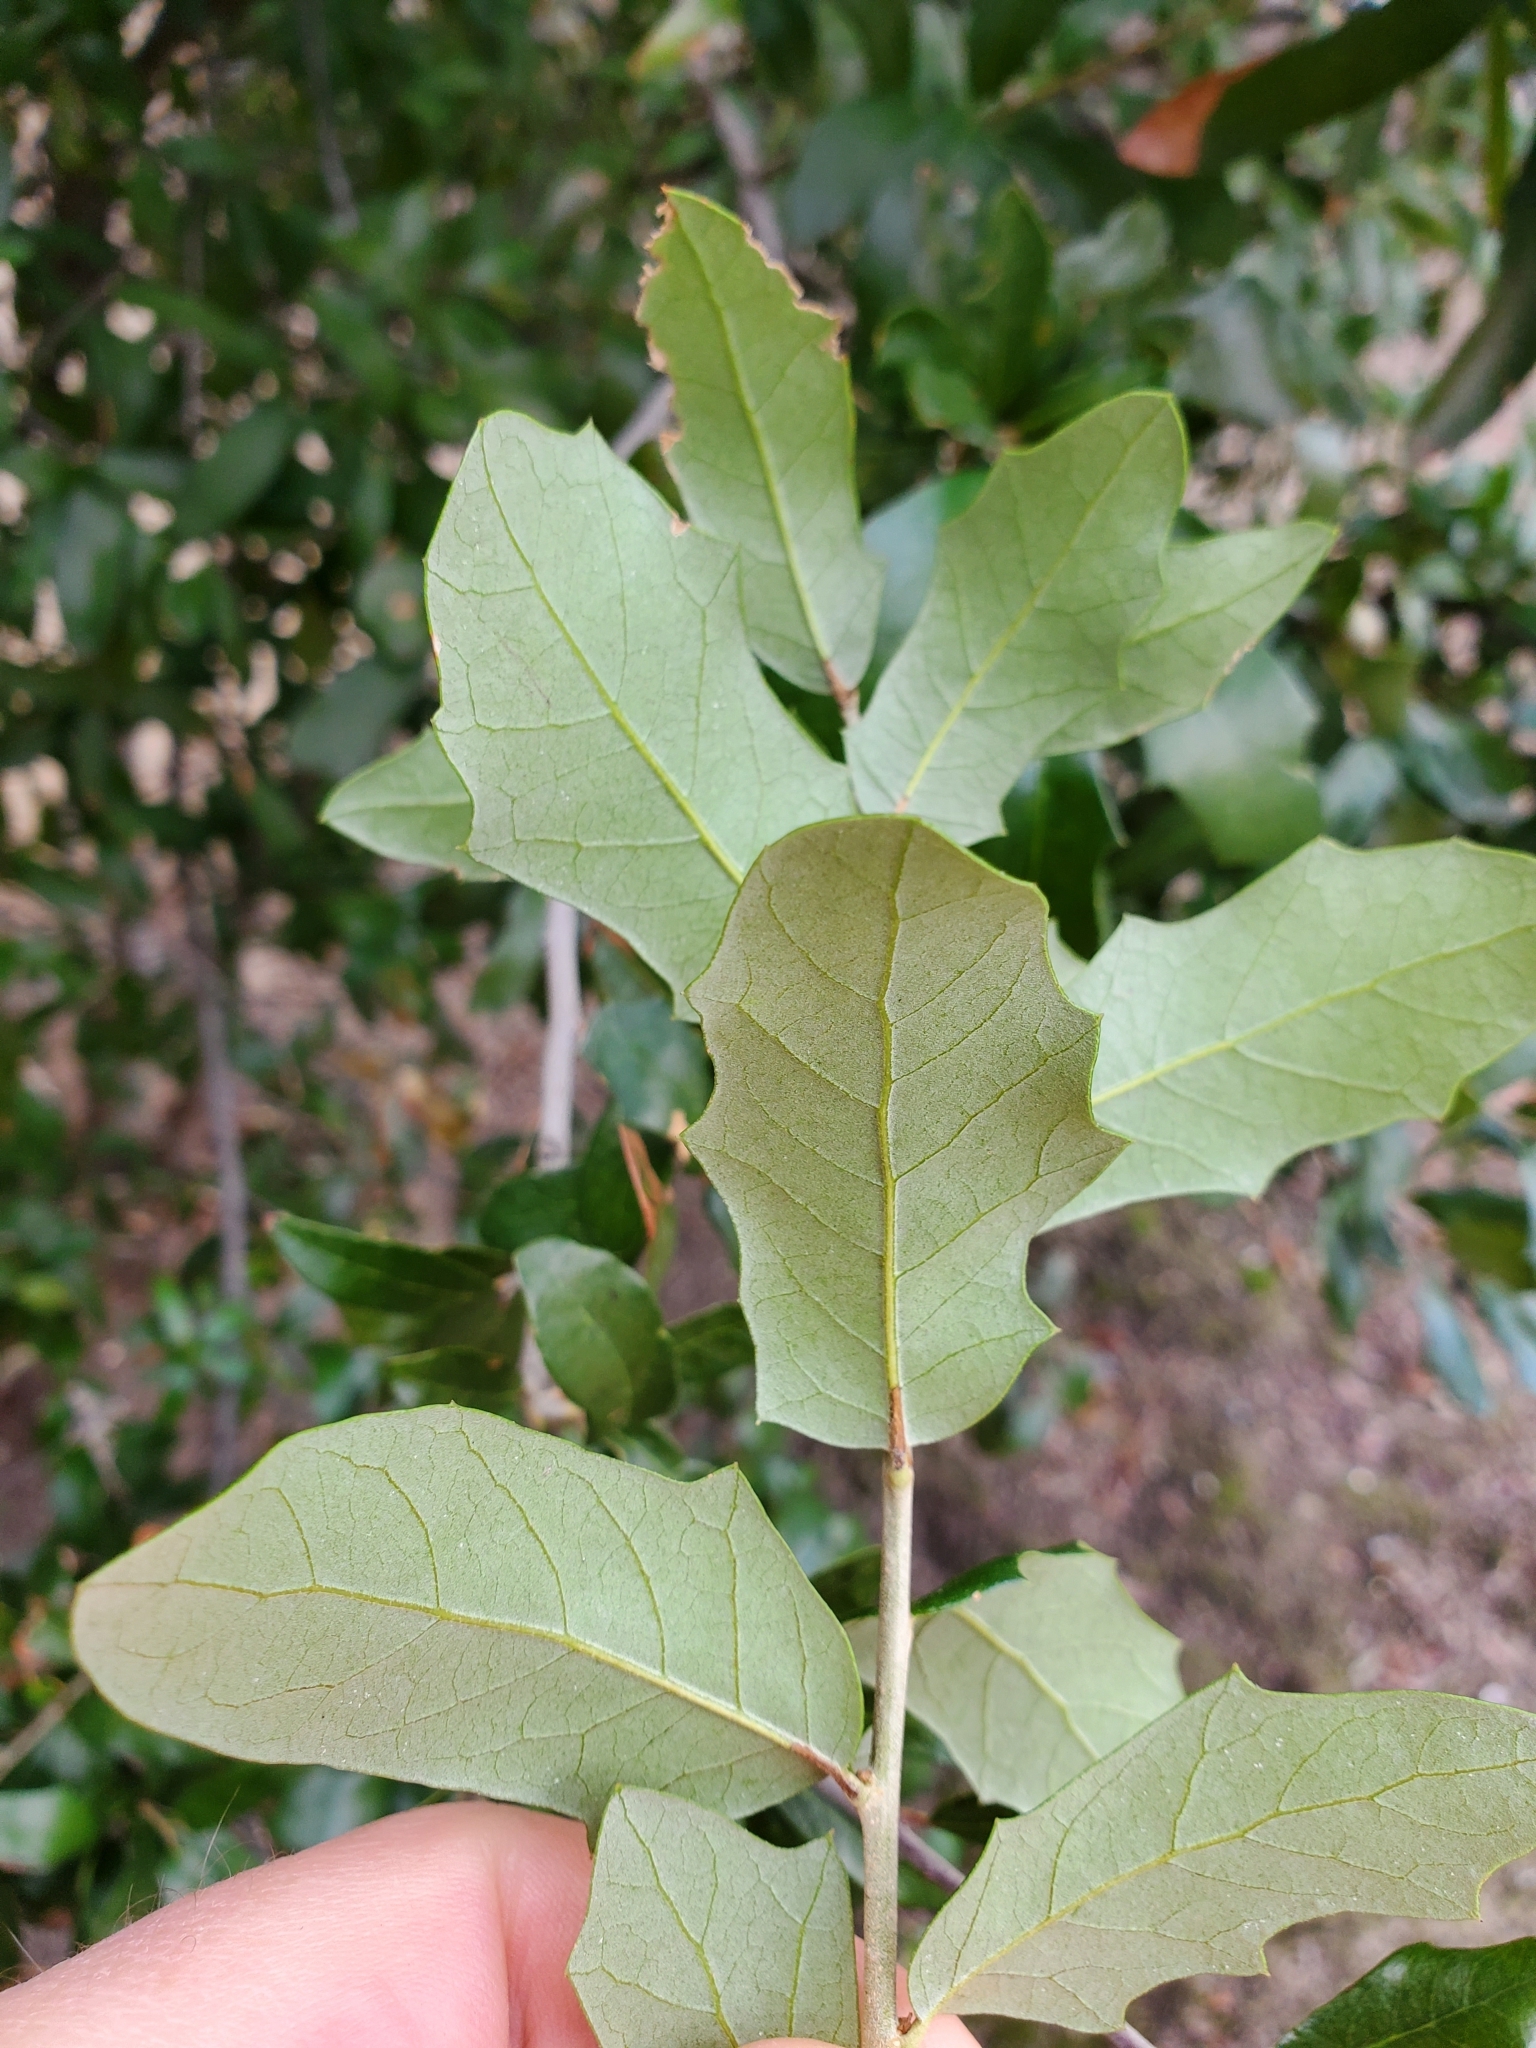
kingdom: Plantae
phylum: Tracheophyta
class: Magnoliopsida
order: Fagales
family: Fagaceae
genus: Quercus
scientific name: Quercus virginiana
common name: Southern live oak
